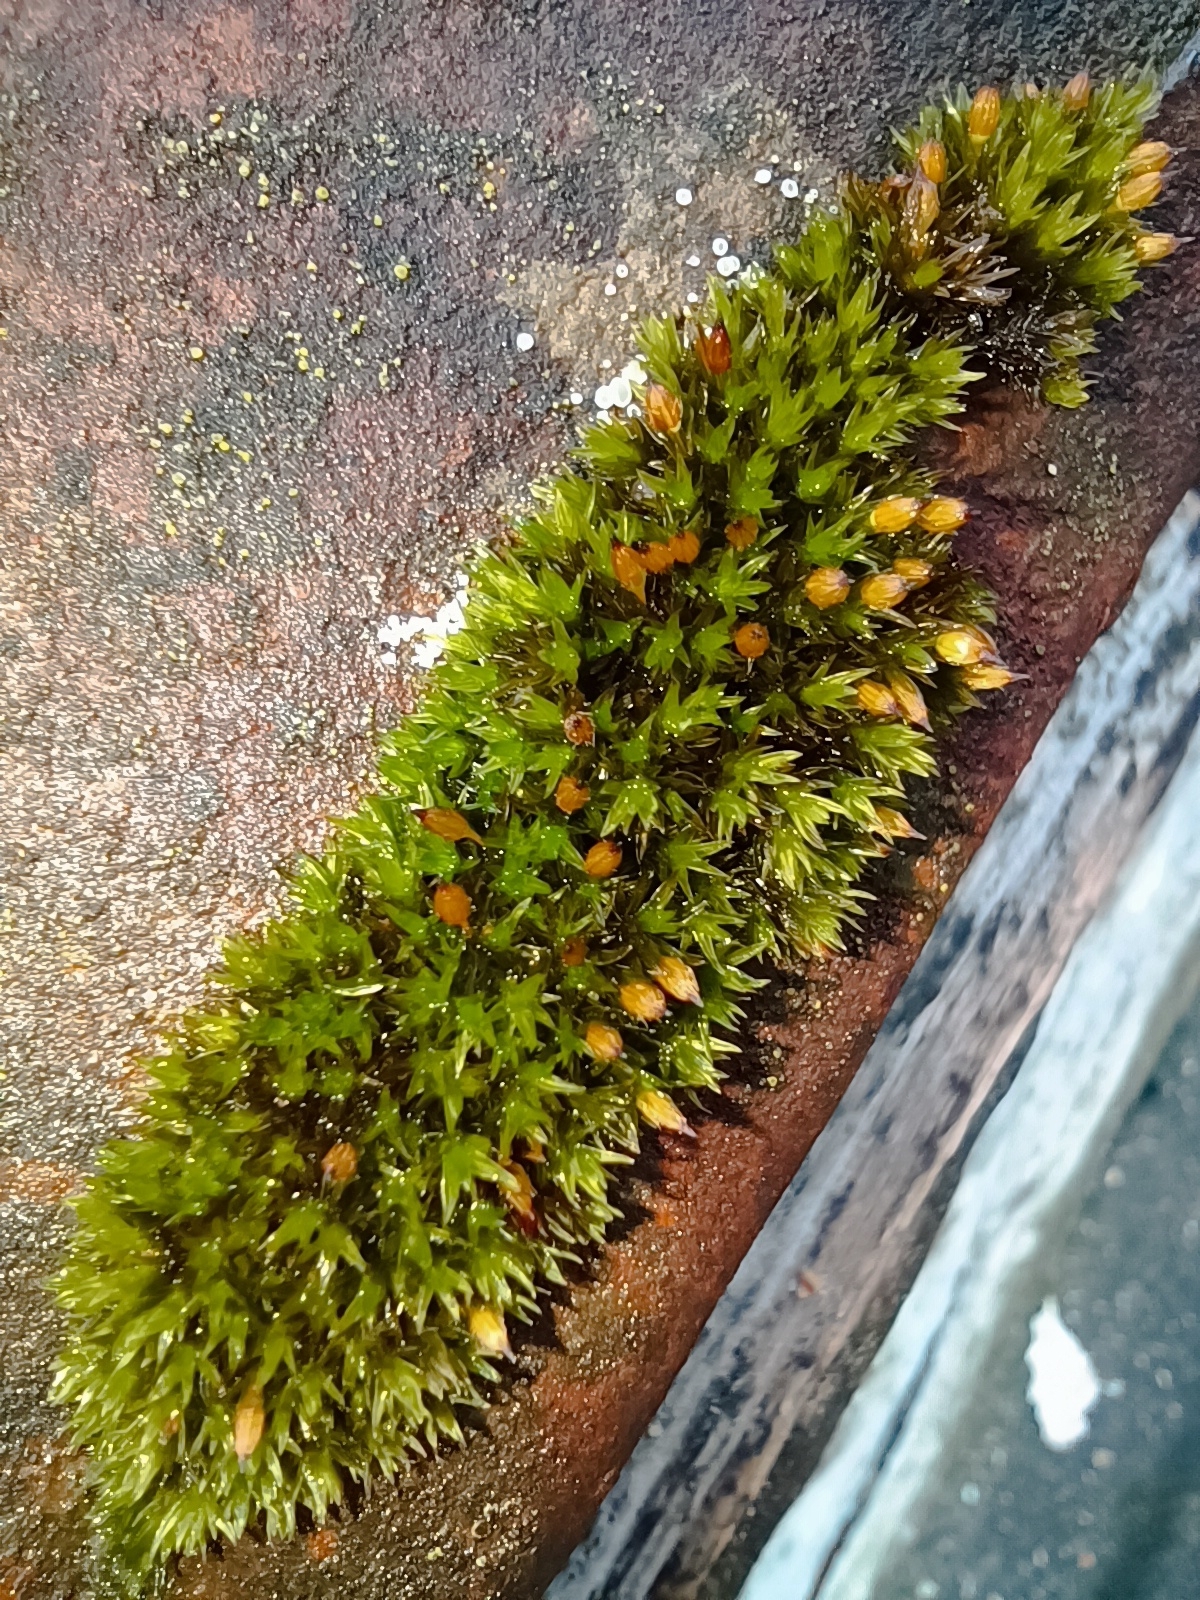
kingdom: Plantae
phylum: Bryophyta
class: Bryopsida
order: Orthotrichales
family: Orthotrichaceae
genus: Orthotrichum
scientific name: Orthotrichum anomalum
